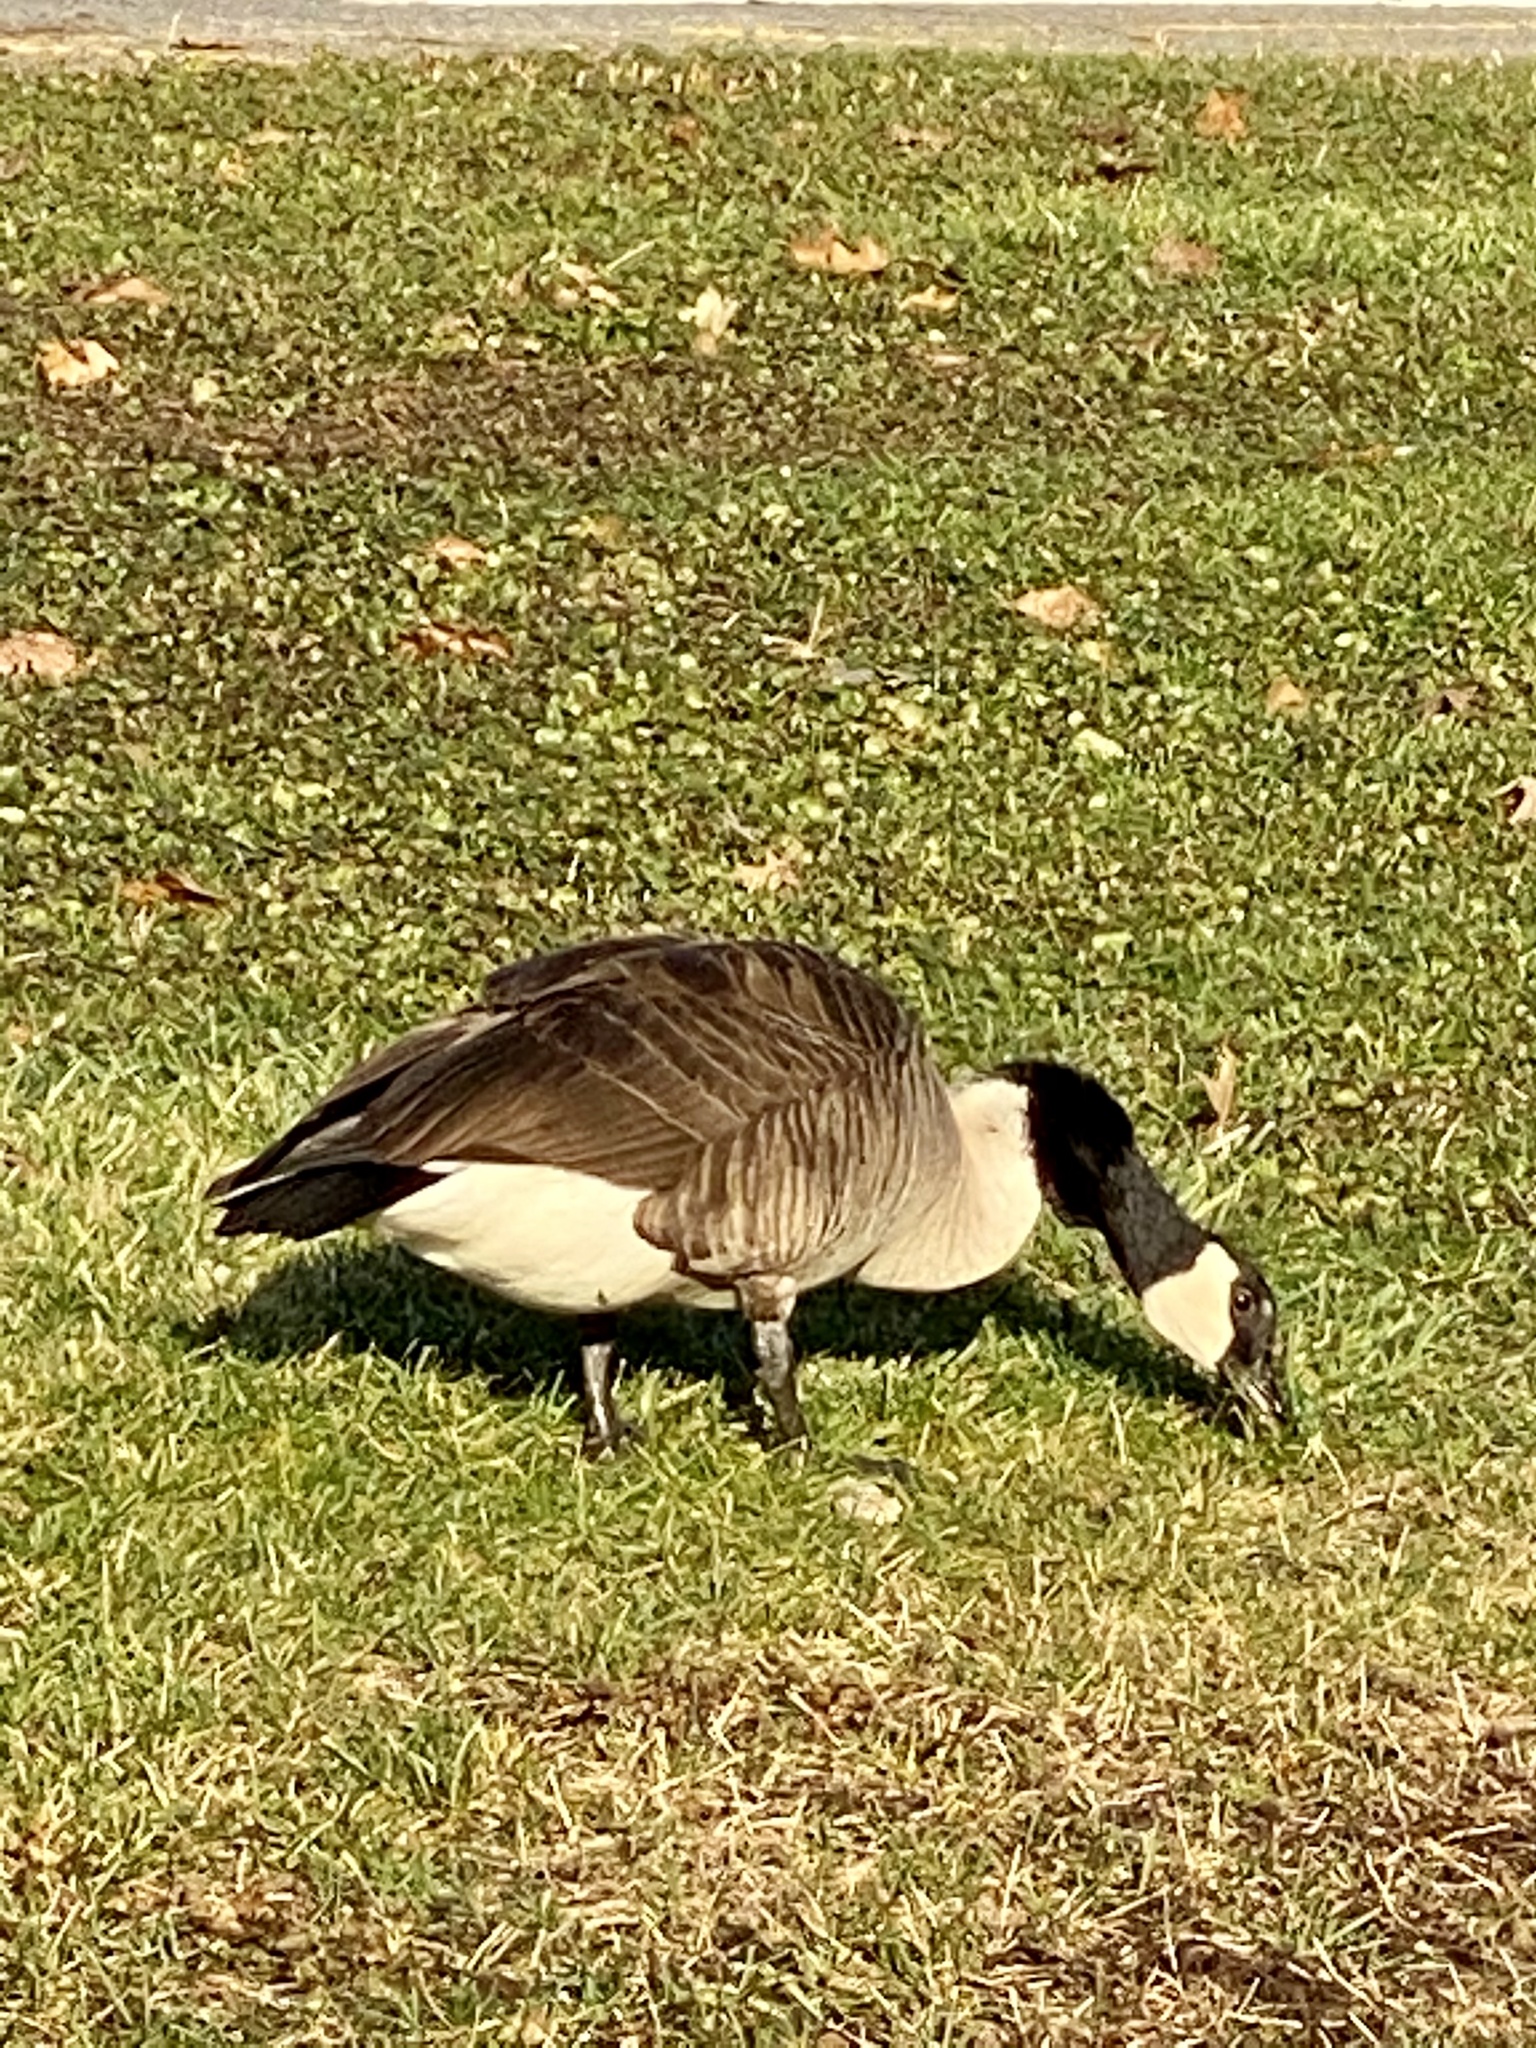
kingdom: Animalia
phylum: Chordata
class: Aves
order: Anseriformes
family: Anatidae
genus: Branta
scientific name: Branta canadensis
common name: Canada goose
